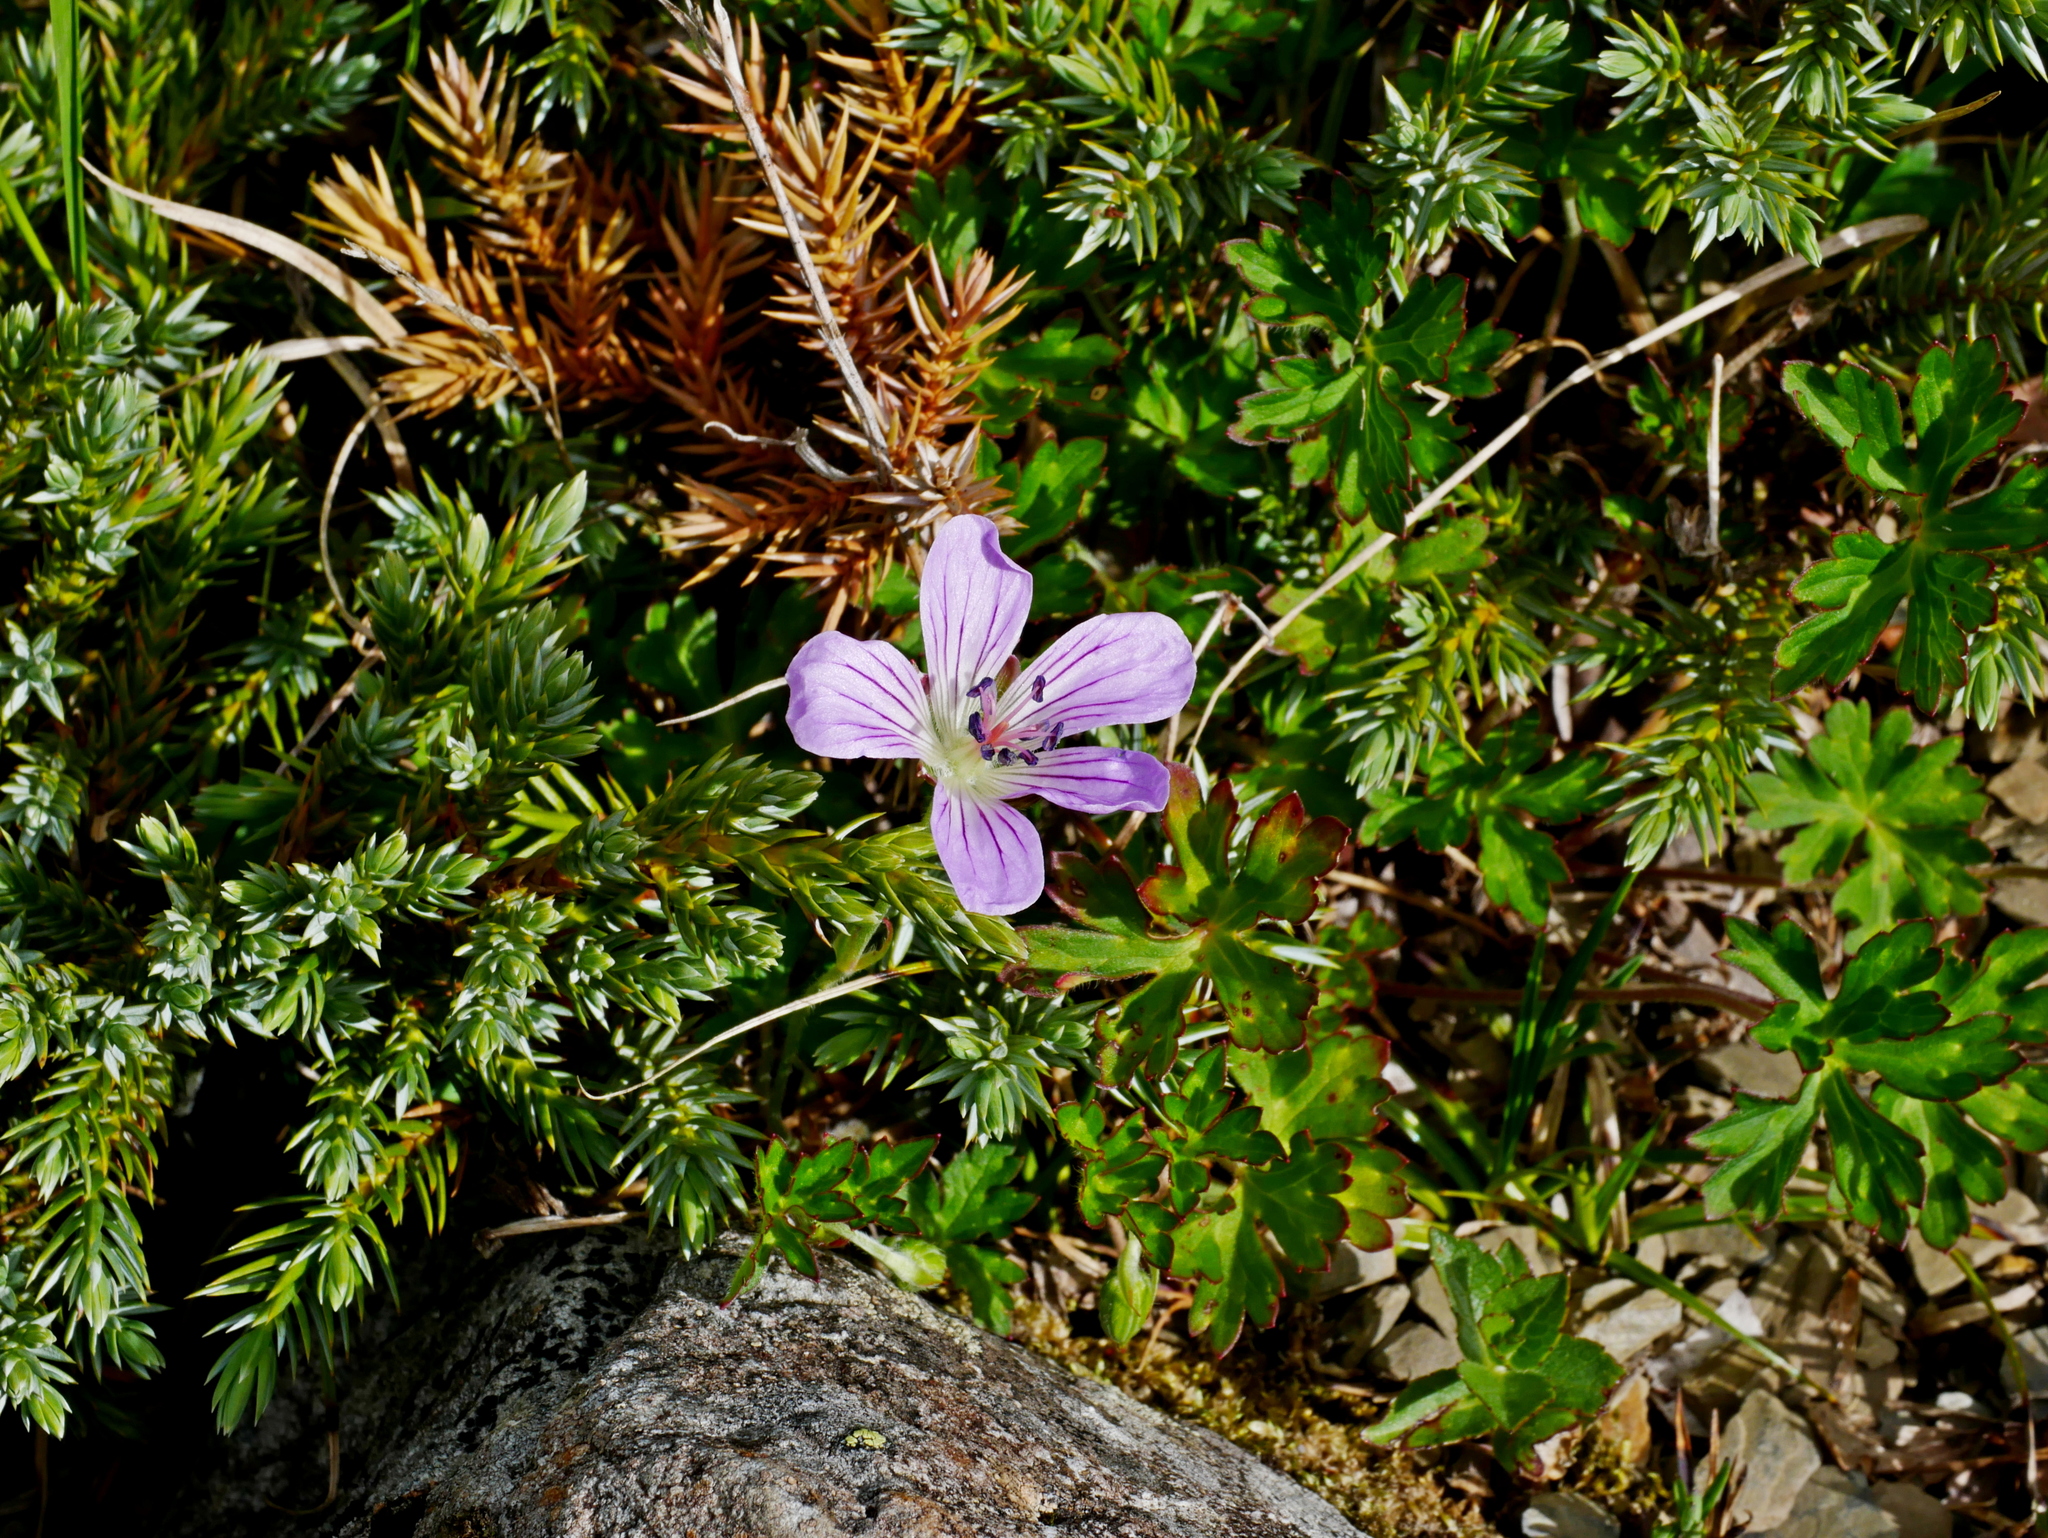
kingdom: Plantae
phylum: Tracheophyta
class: Magnoliopsida
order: Geraniales
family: Geraniaceae
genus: Geranium
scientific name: Geranium hayatanum
